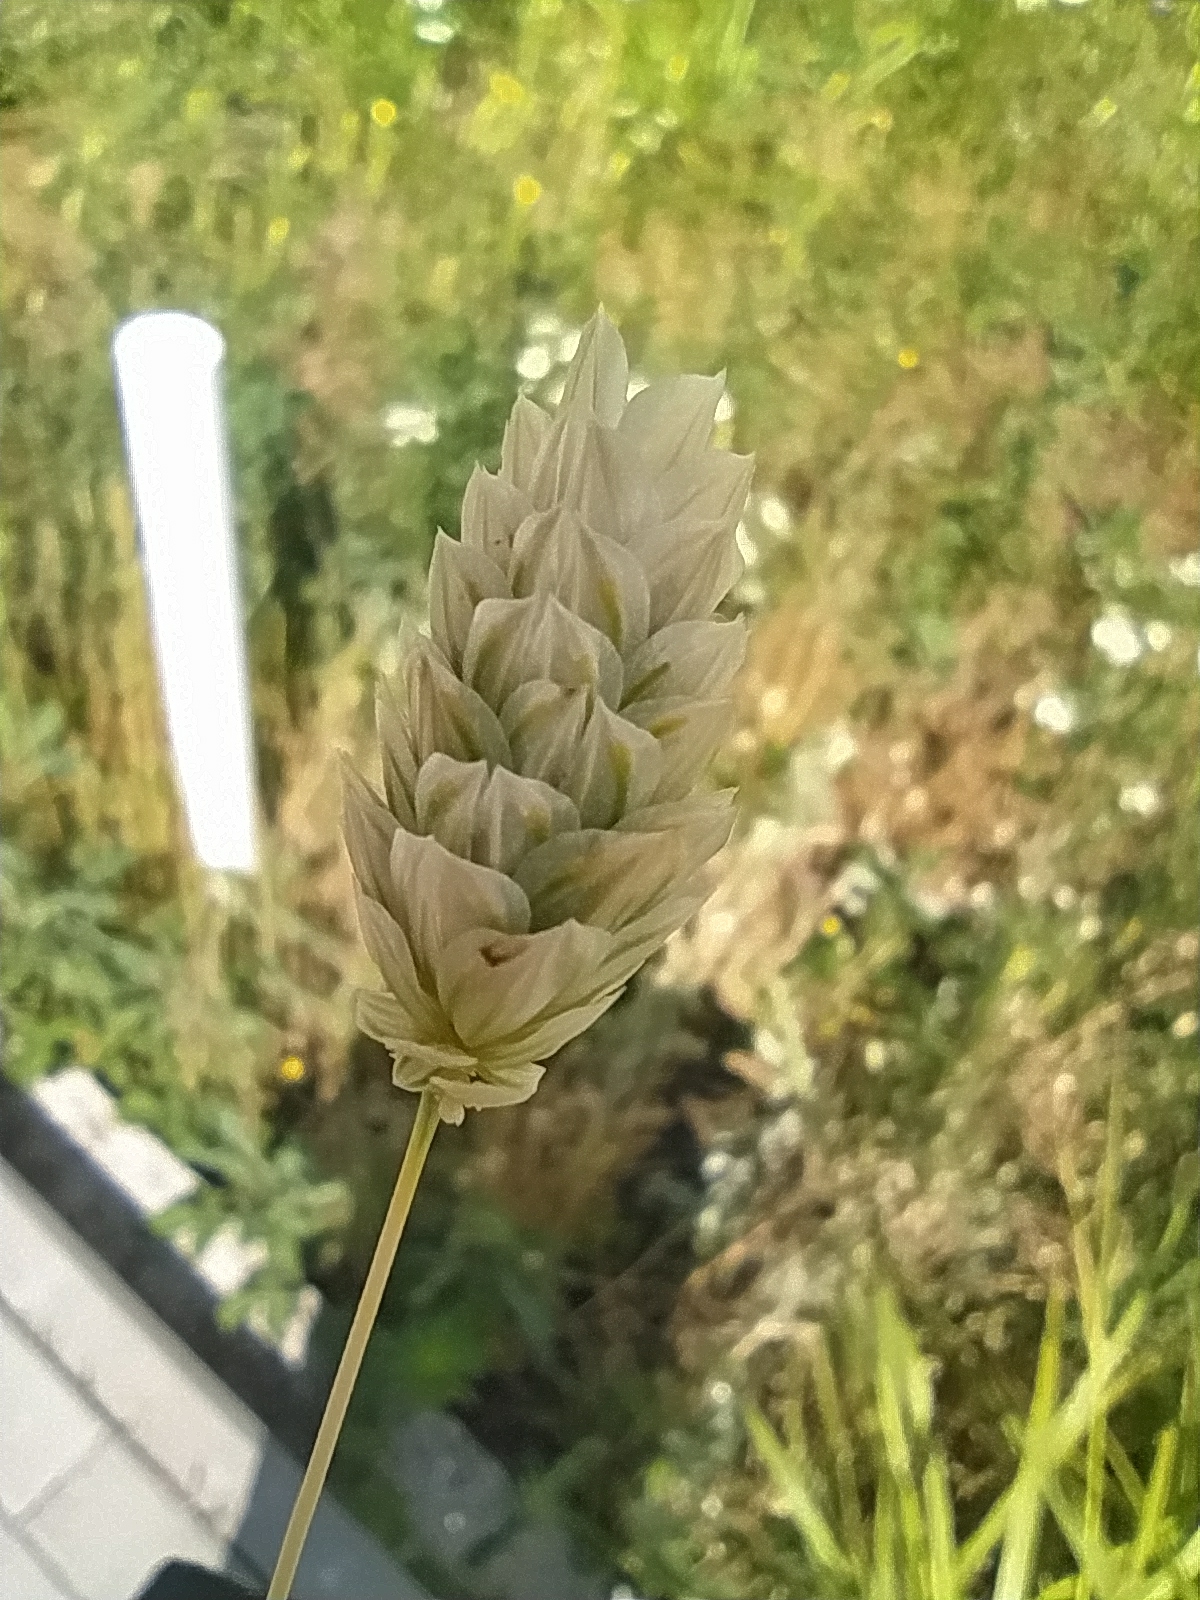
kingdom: Plantae
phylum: Tracheophyta
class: Liliopsida
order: Poales
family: Poaceae
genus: Phalaris
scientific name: Phalaris canariensis
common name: Annual canarygrass
